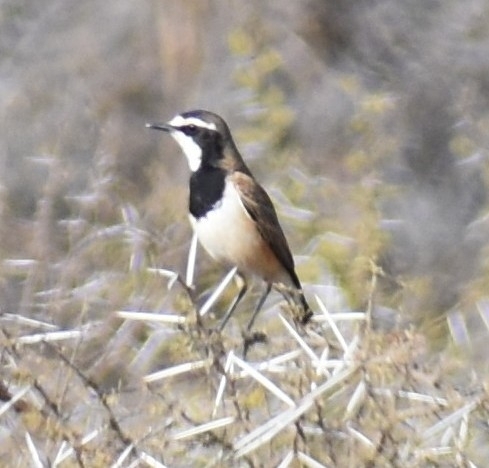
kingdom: Animalia
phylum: Chordata
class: Aves
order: Passeriformes
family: Muscicapidae
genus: Oenanthe
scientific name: Oenanthe pileata
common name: Capped wheatear
